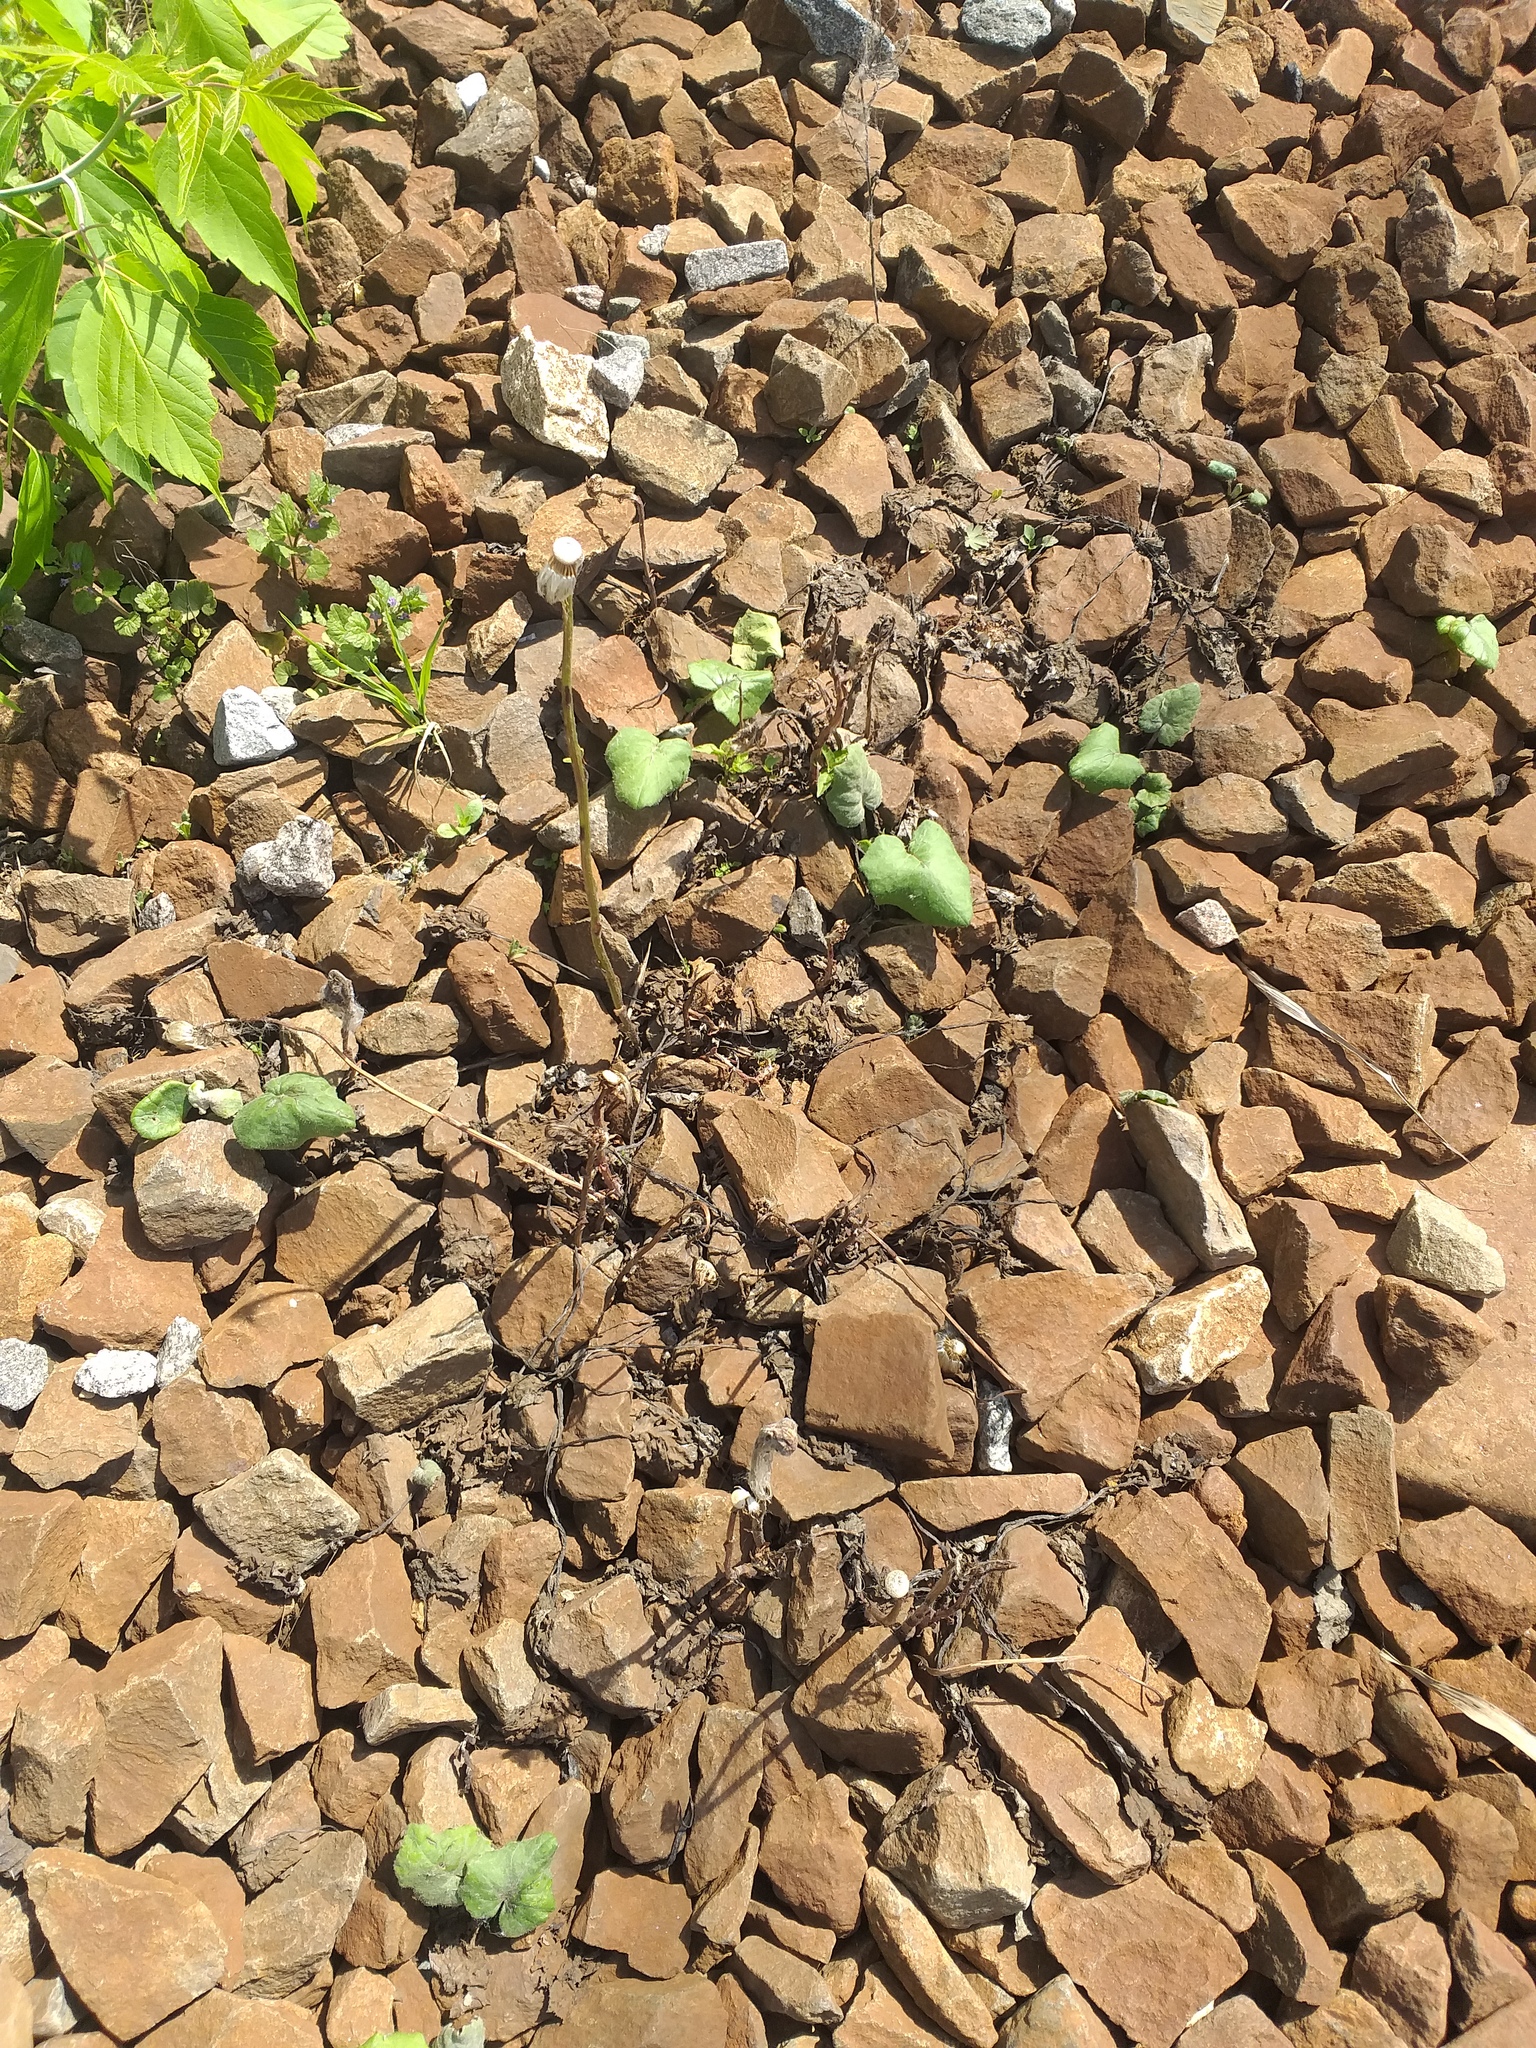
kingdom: Plantae
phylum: Tracheophyta
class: Magnoliopsida
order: Asterales
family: Asteraceae
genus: Tussilago
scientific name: Tussilago farfara
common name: Coltsfoot
